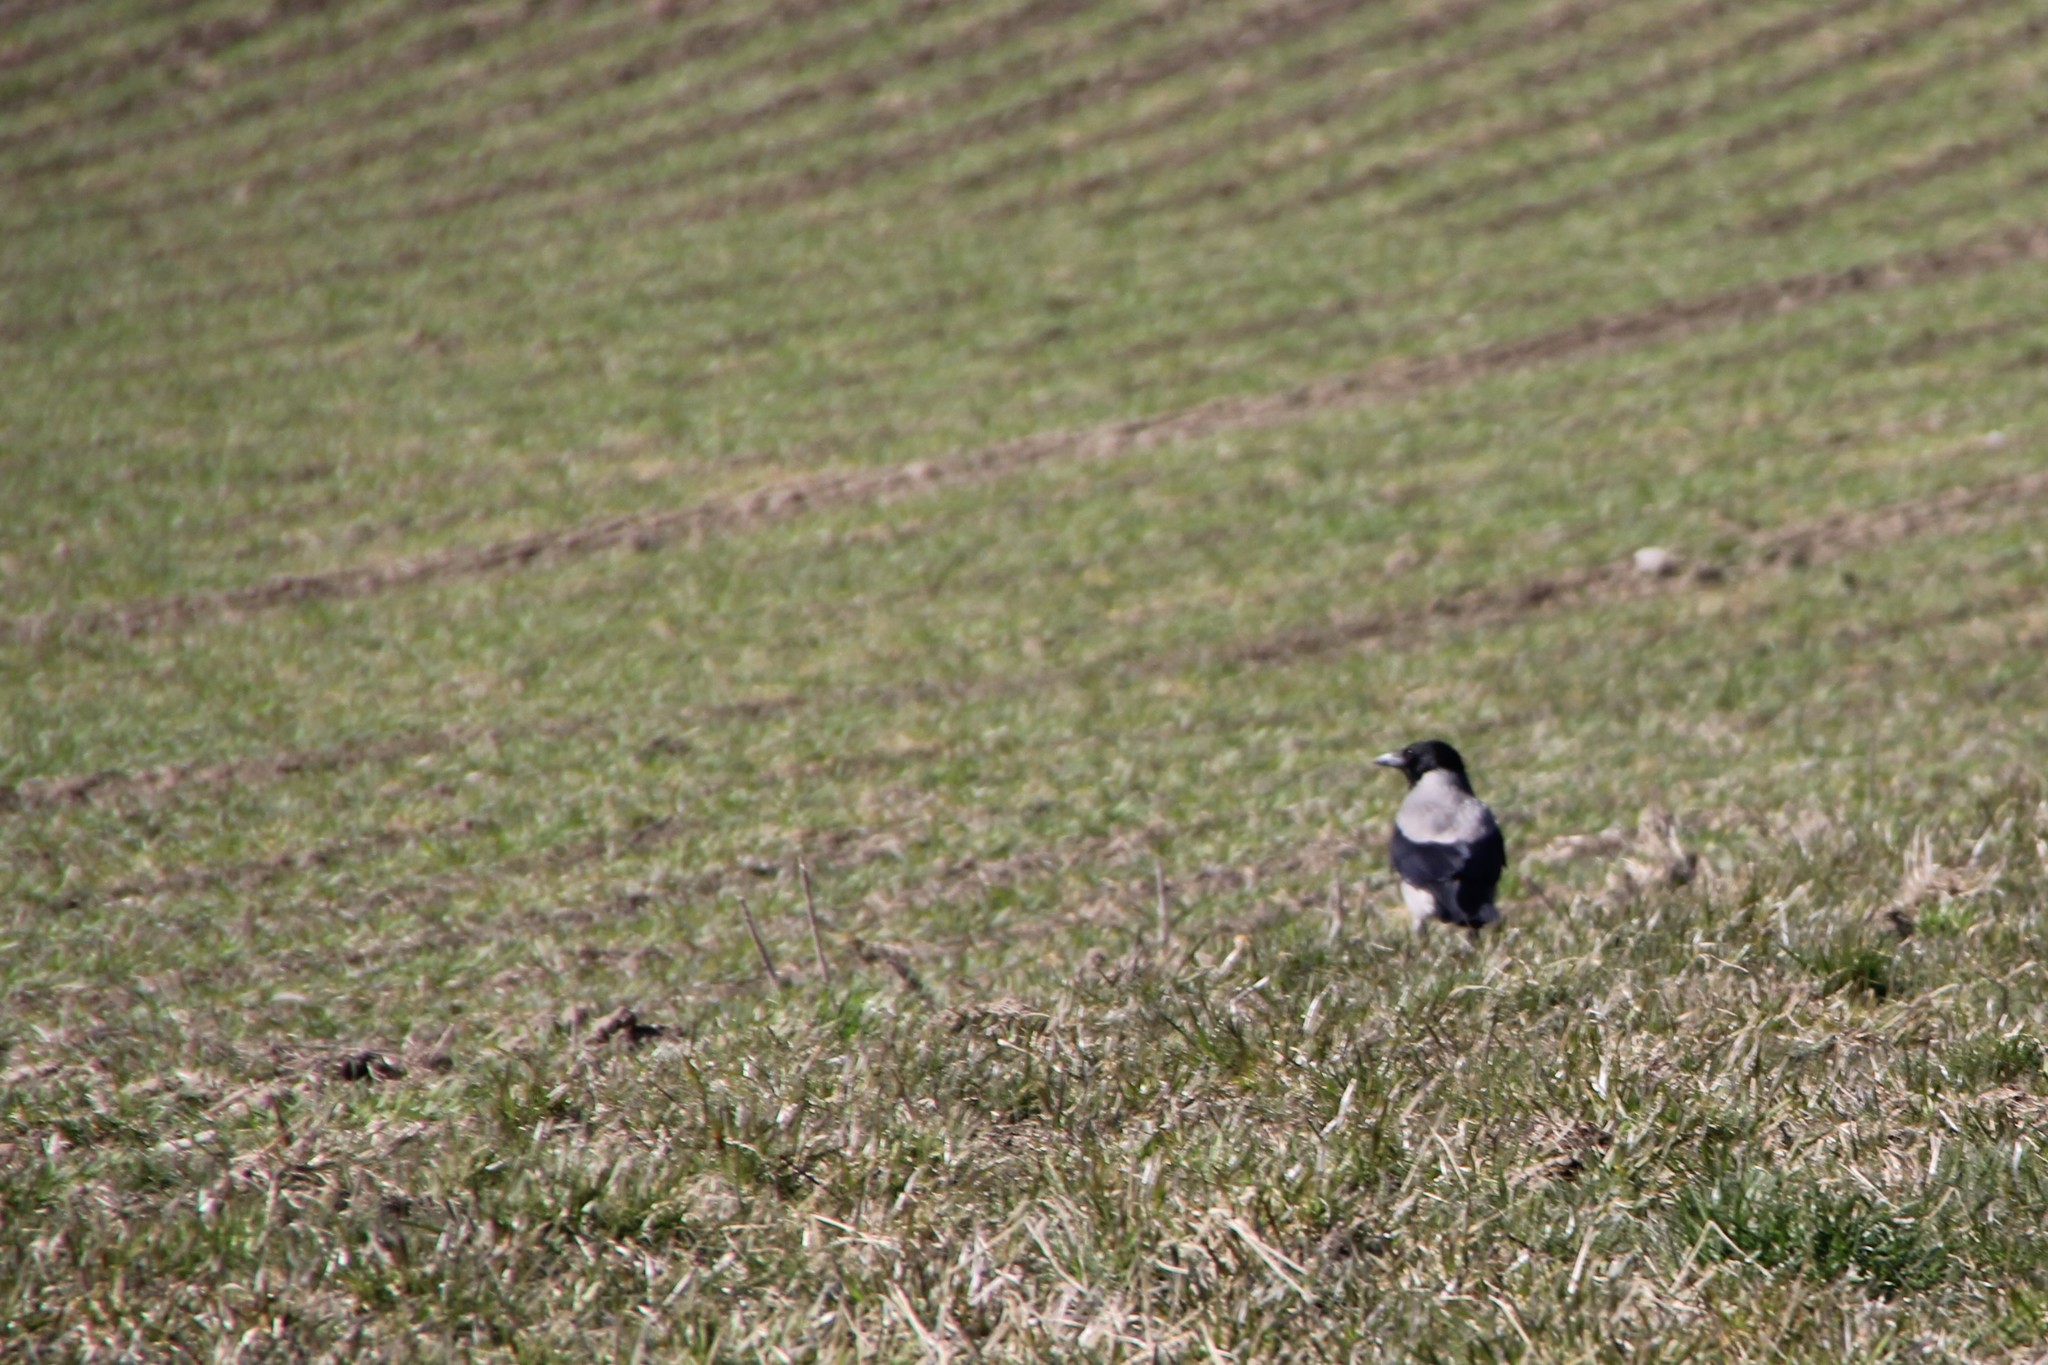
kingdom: Animalia
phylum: Chordata
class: Aves
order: Passeriformes
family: Corvidae
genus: Corvus
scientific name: Corvus cornix
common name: Hooded crow
